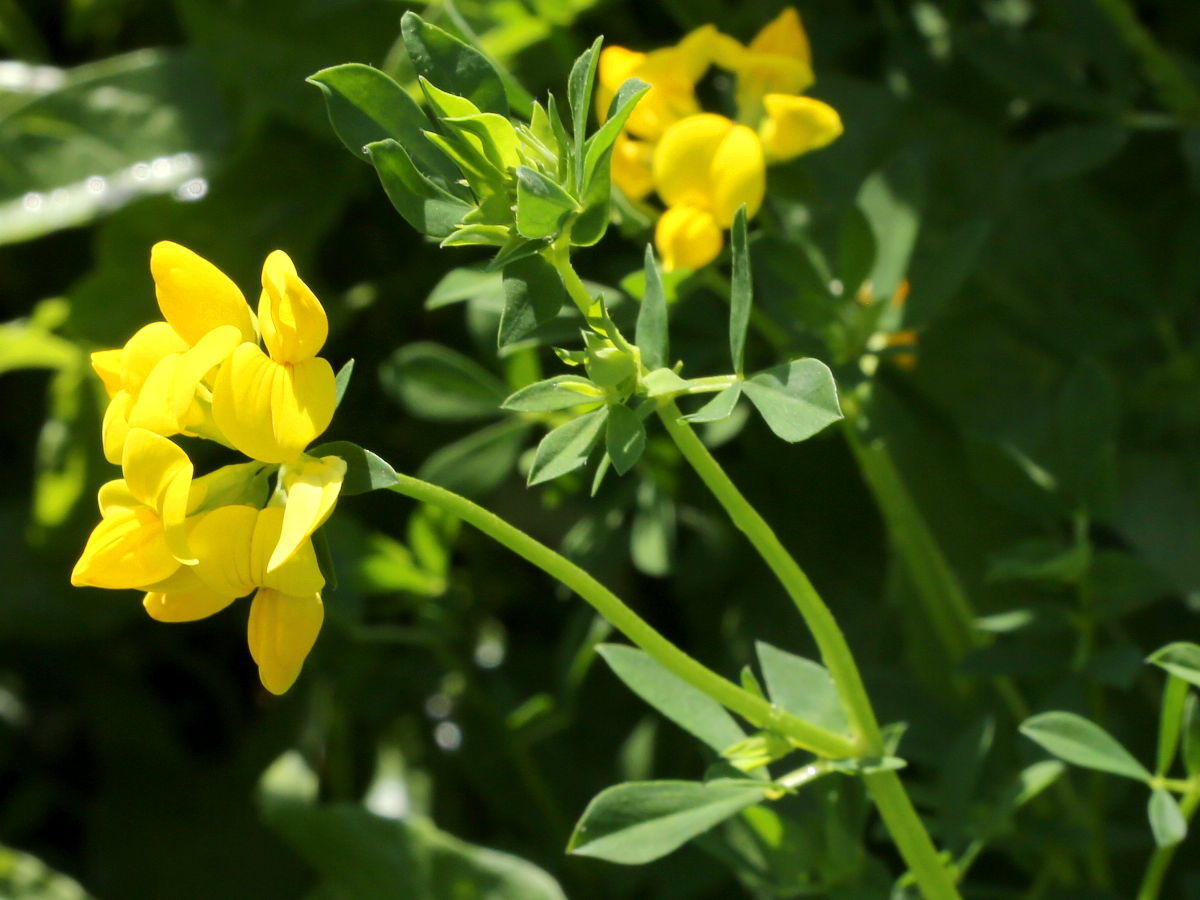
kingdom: Plantae
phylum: Tracheophyta
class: Magnoliopsida
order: Fabales
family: Fabaceae
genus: Lotus
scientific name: Lotus corniculatus
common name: Common bird's-foot-trefoil
